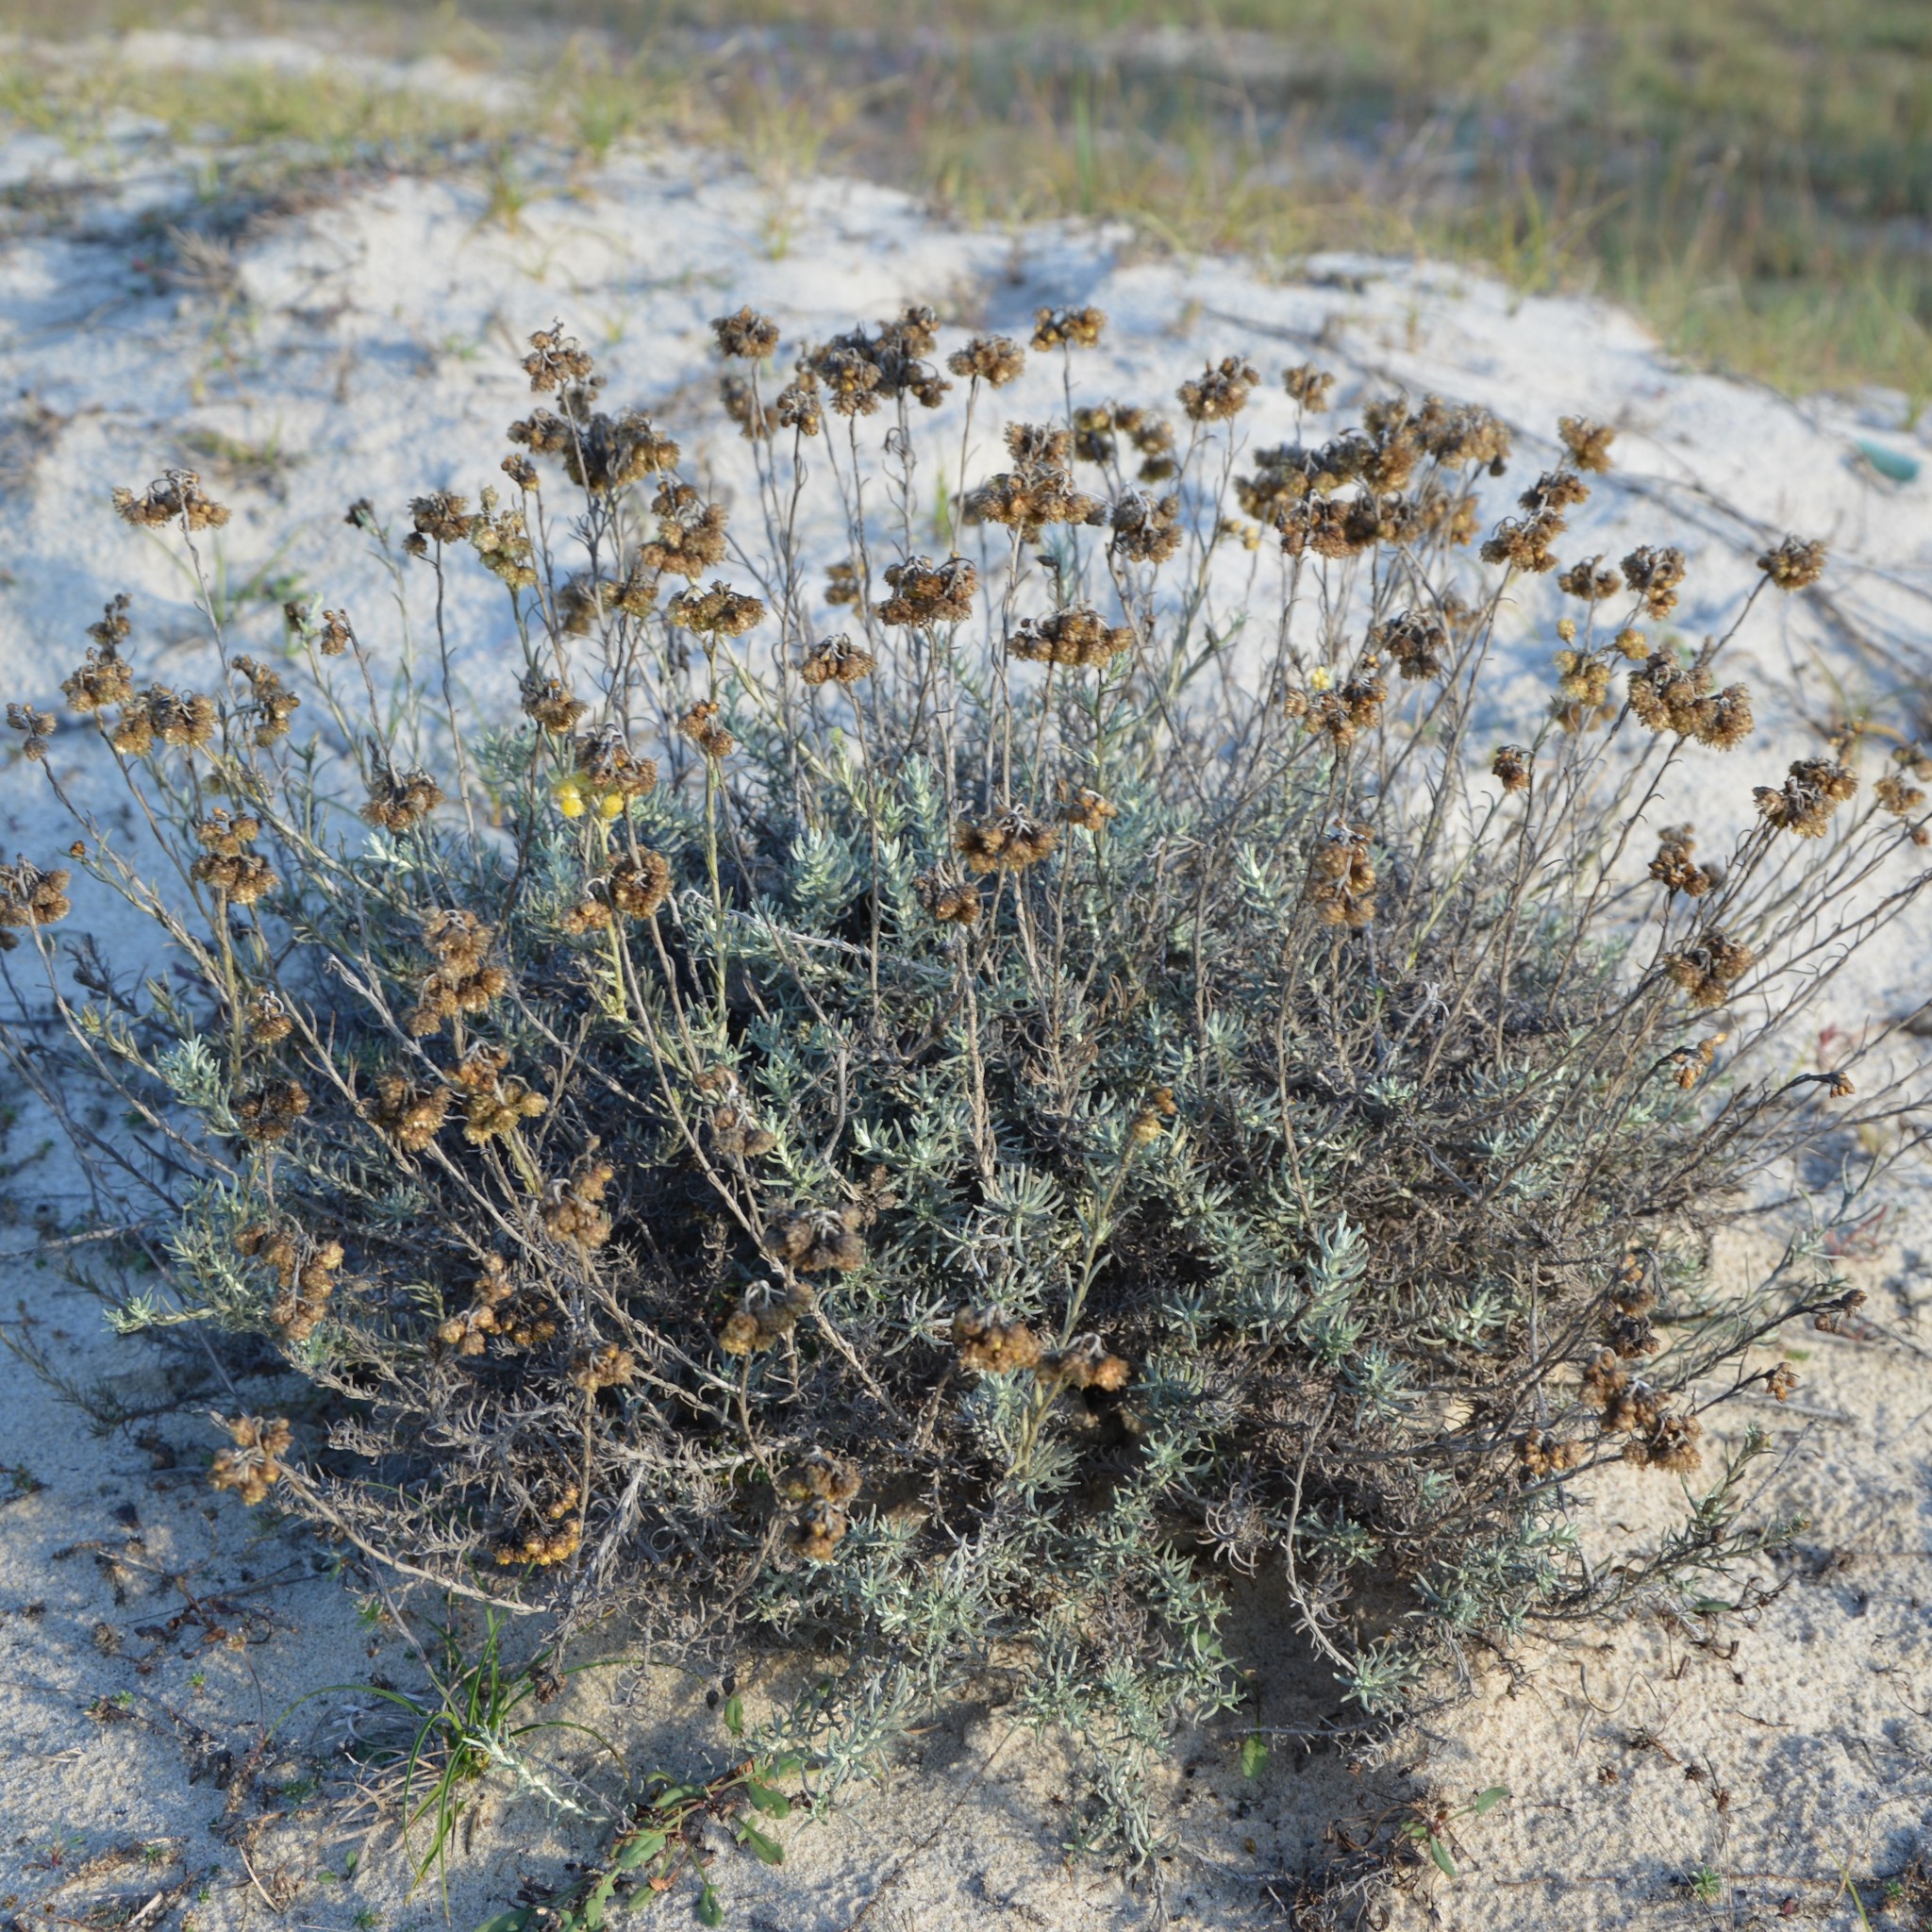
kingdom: Plantae
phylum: Tracheophyta
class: Magnoliopsida
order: Asterales
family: Asteraceae
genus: Helichrysum
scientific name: Helichrysum stoechas
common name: Goldilocks
